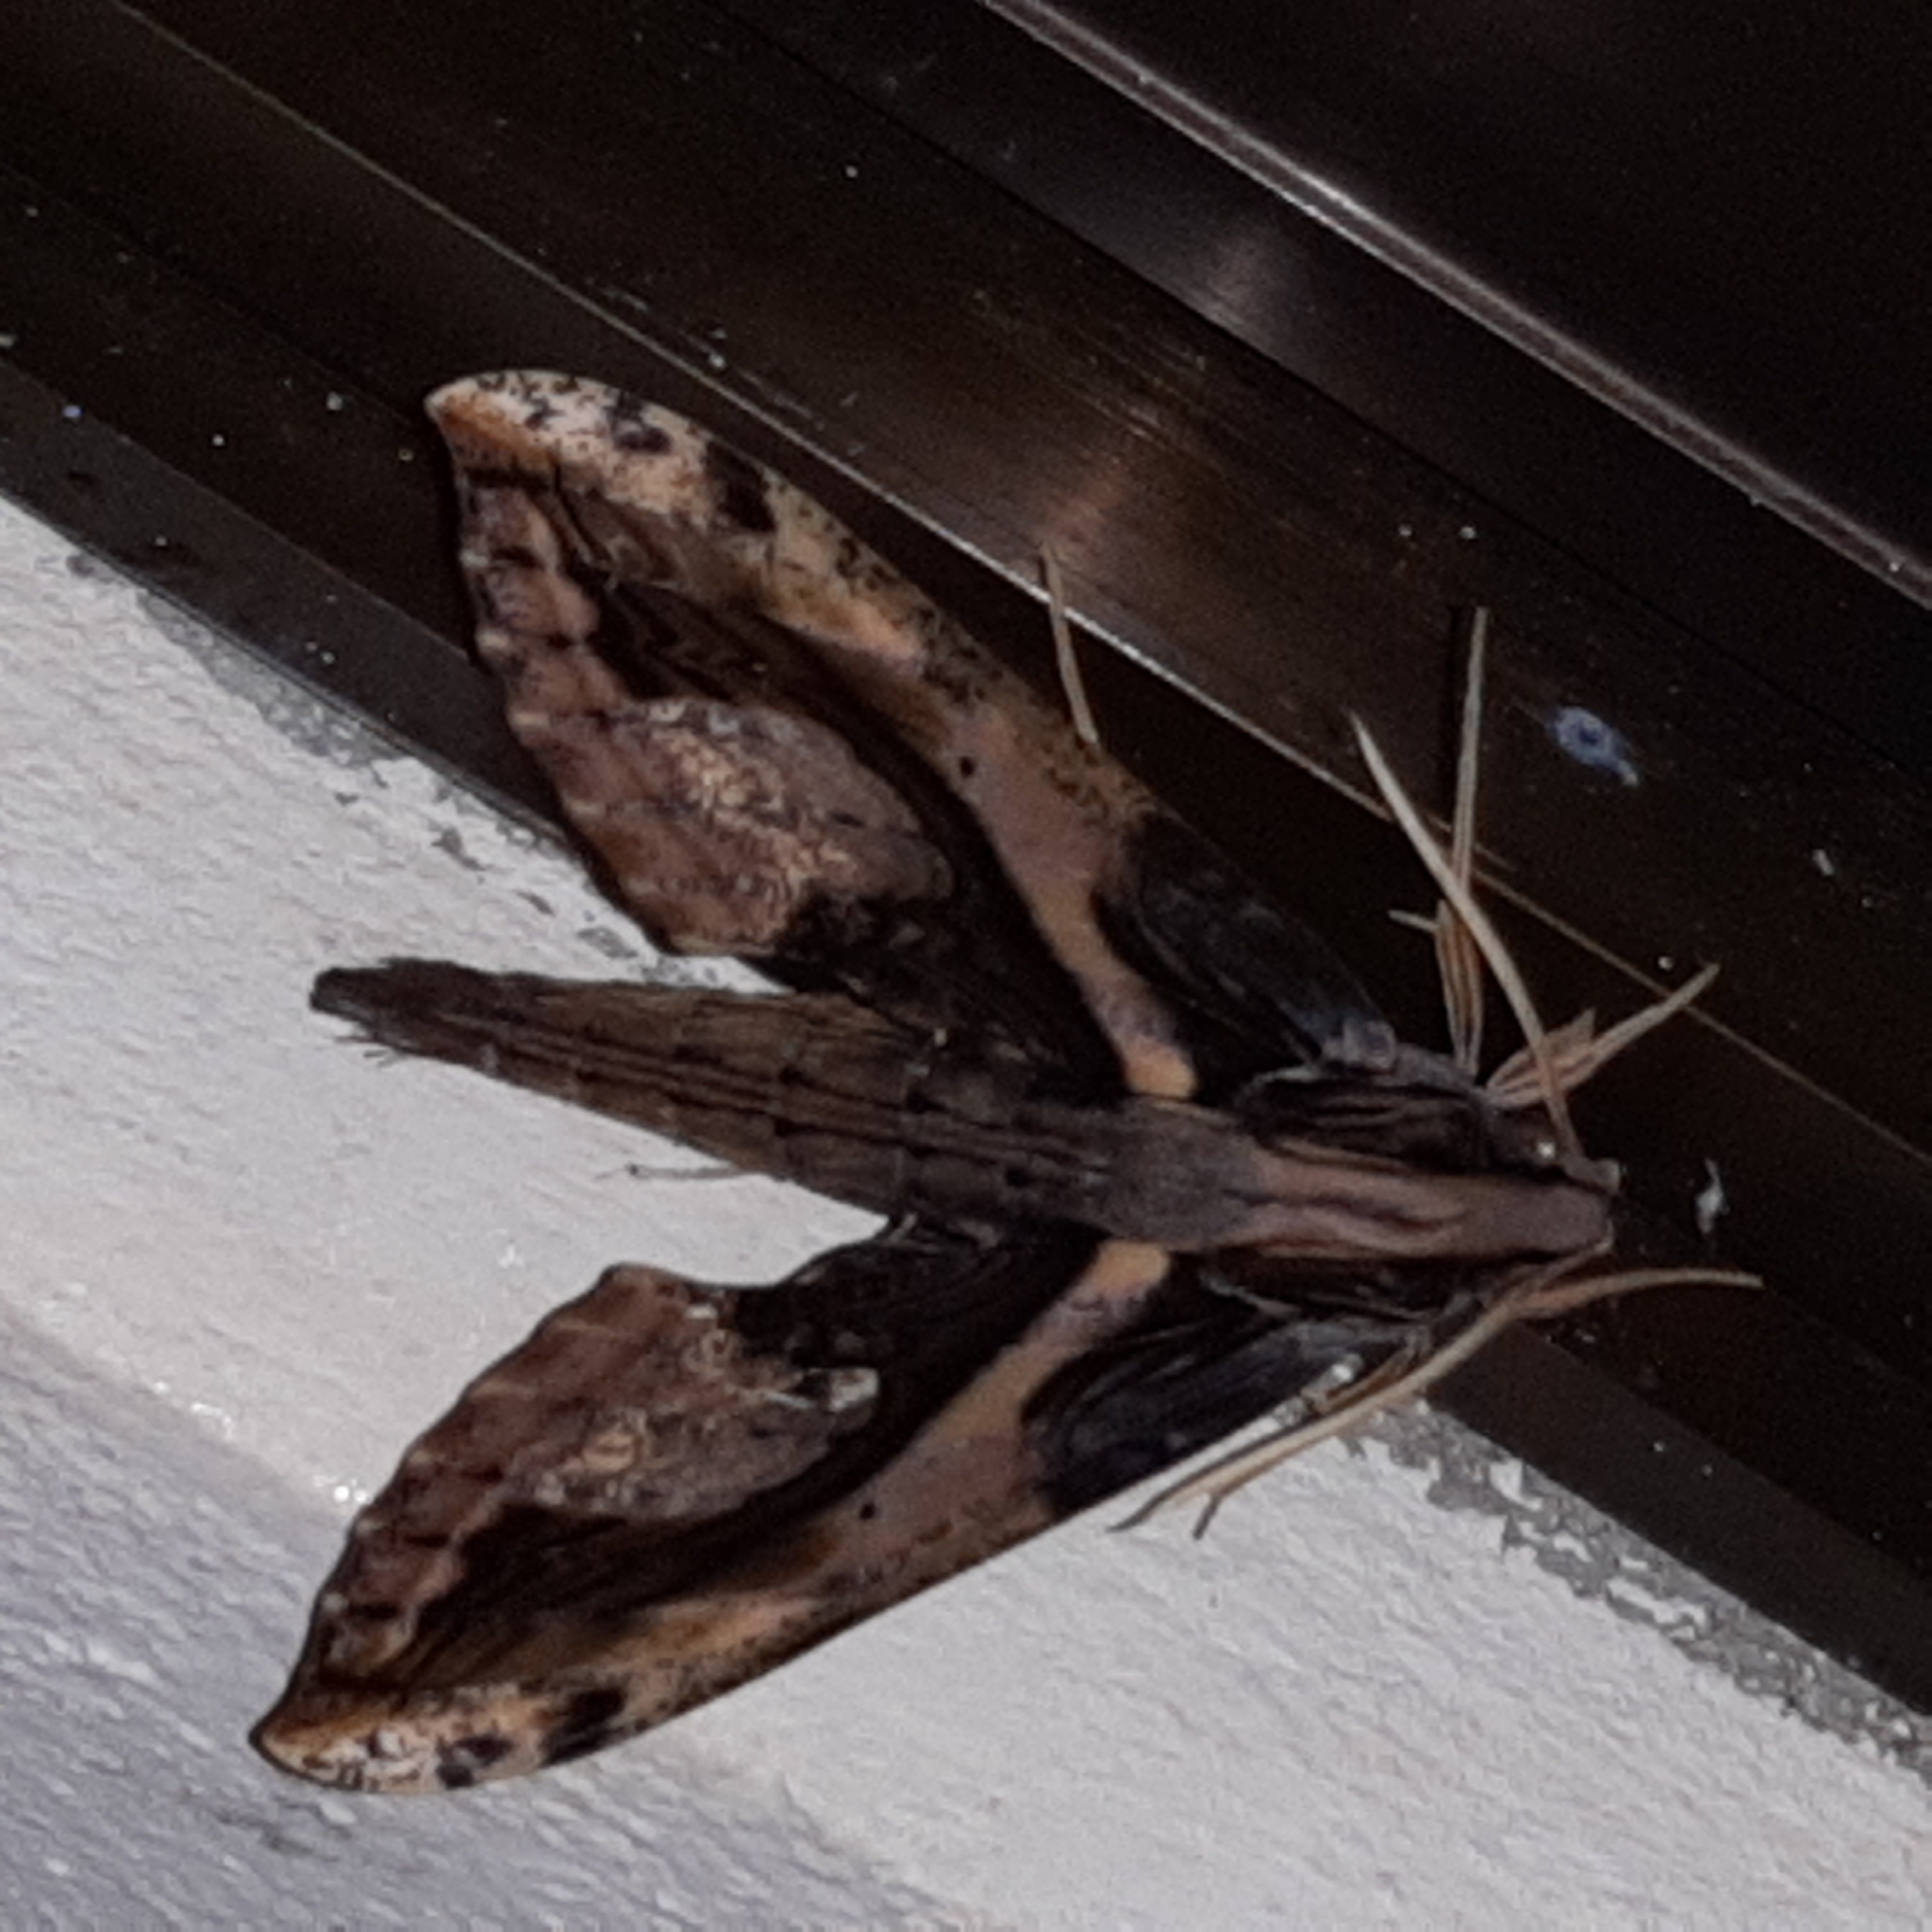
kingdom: Animalia
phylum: Arthropoda
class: Insecta
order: Lepidoptera
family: Sphingidae
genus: Xylophanes
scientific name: Xylophanes ceratomioides
